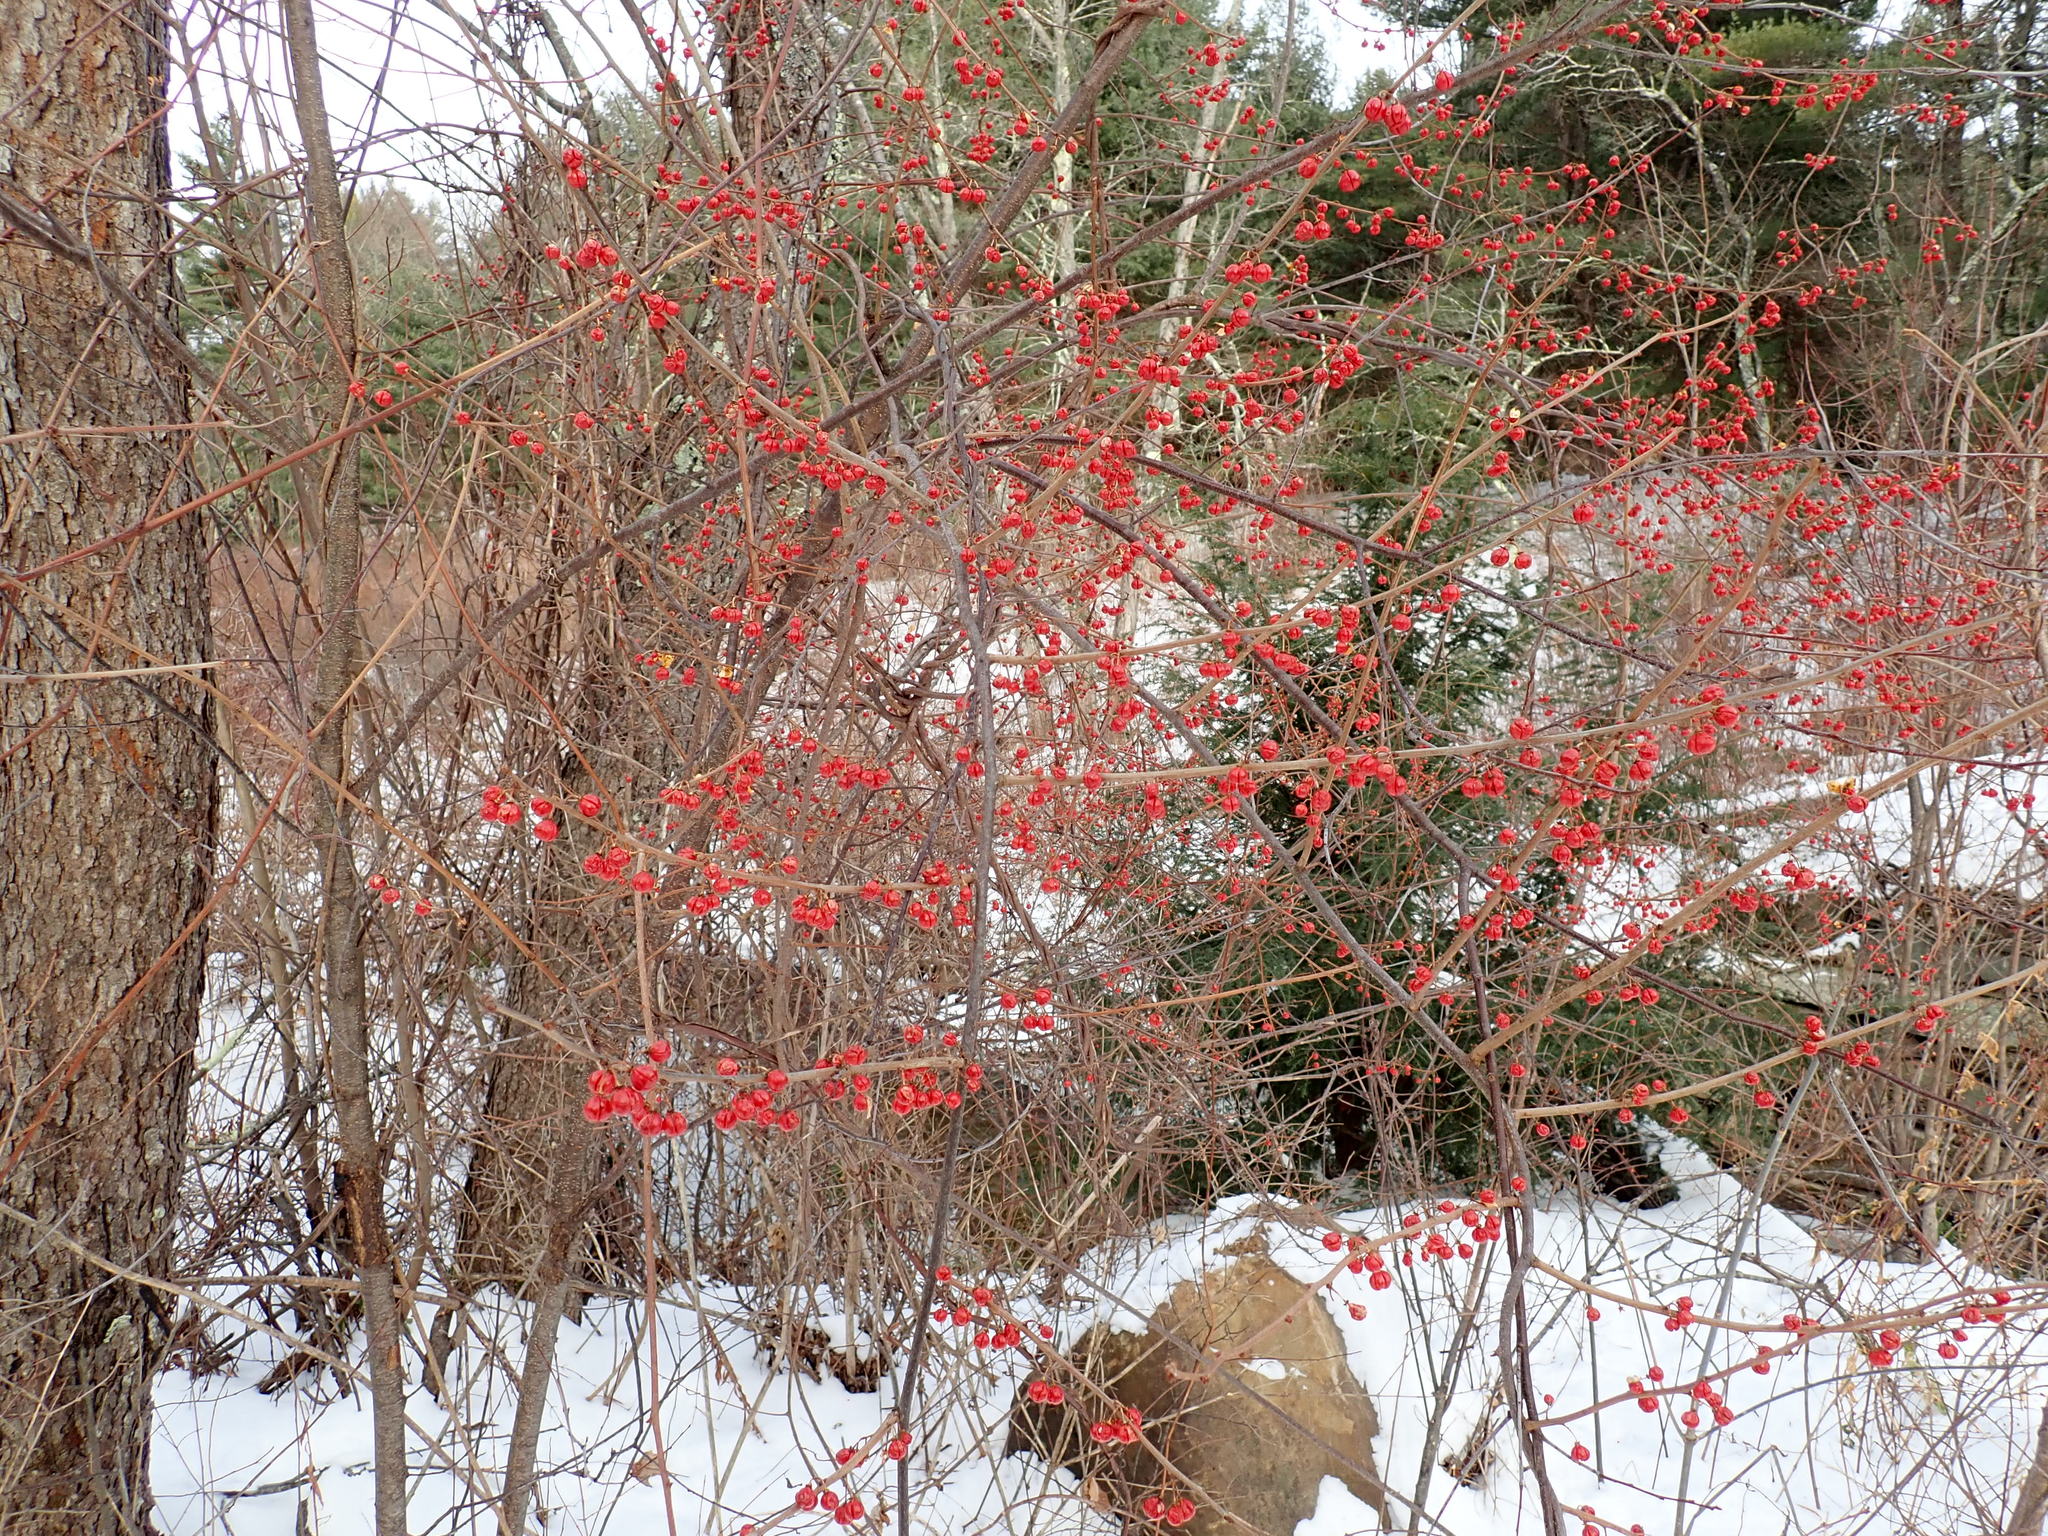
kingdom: Plantae
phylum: Tracheophyta
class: Magnoliopsida
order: Celastrales
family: Celastraceae
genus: Celastrus
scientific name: Celastrus orbiculatus
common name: Oriental bittersweet
